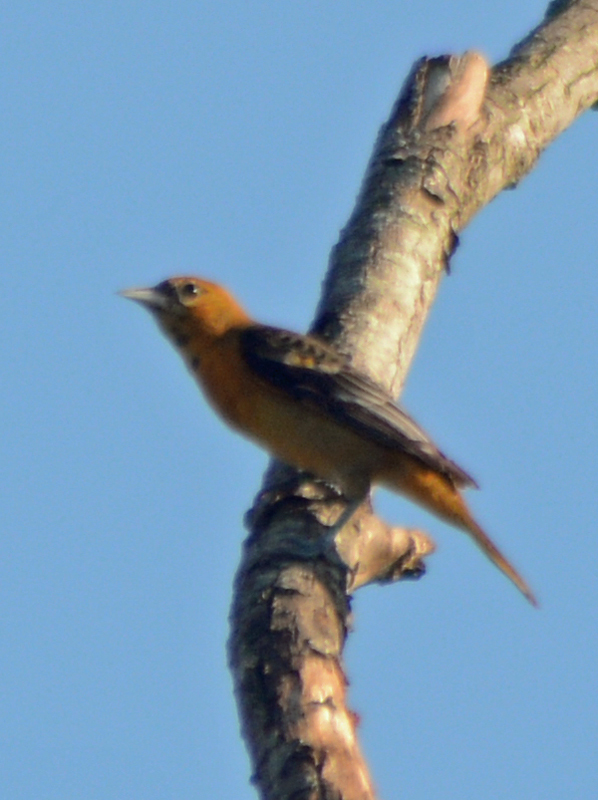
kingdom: Animalia
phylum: Chordata
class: Aves
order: Passeriformes
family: Icteridae
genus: Icterus
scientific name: Icterus galbula
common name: Baltimore oriole
